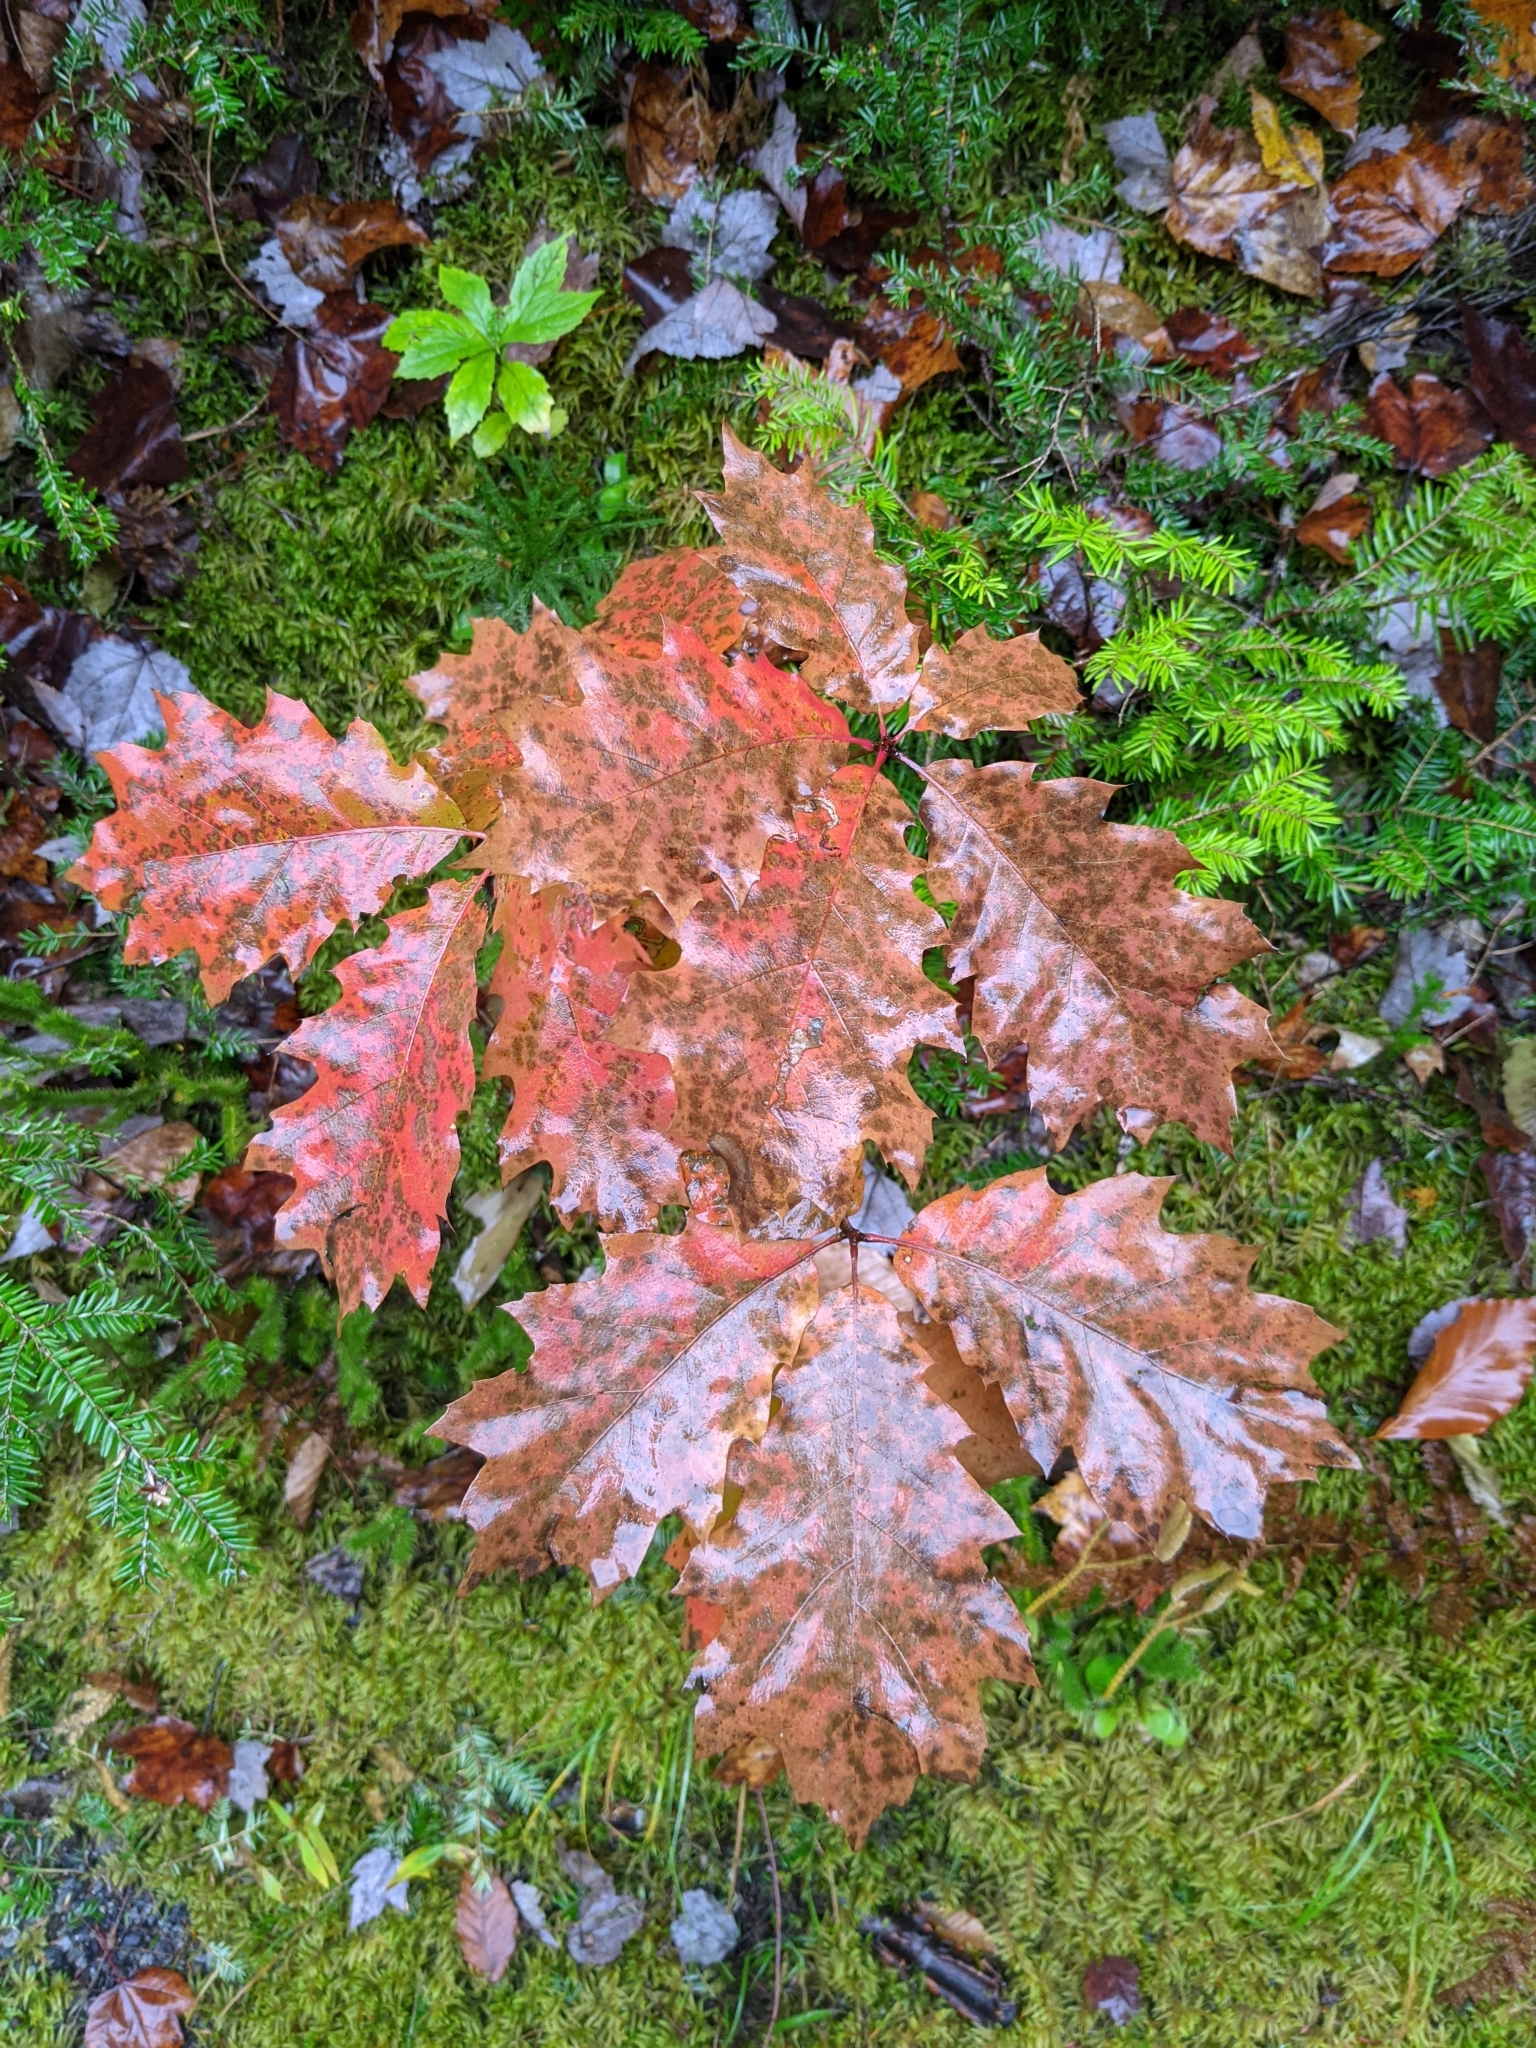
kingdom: Plantae
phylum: Tracheophyta
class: Magnoliopsida
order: Fagales
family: Fagaceae
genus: Quercus
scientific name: Quercus rubra
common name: Red oak
